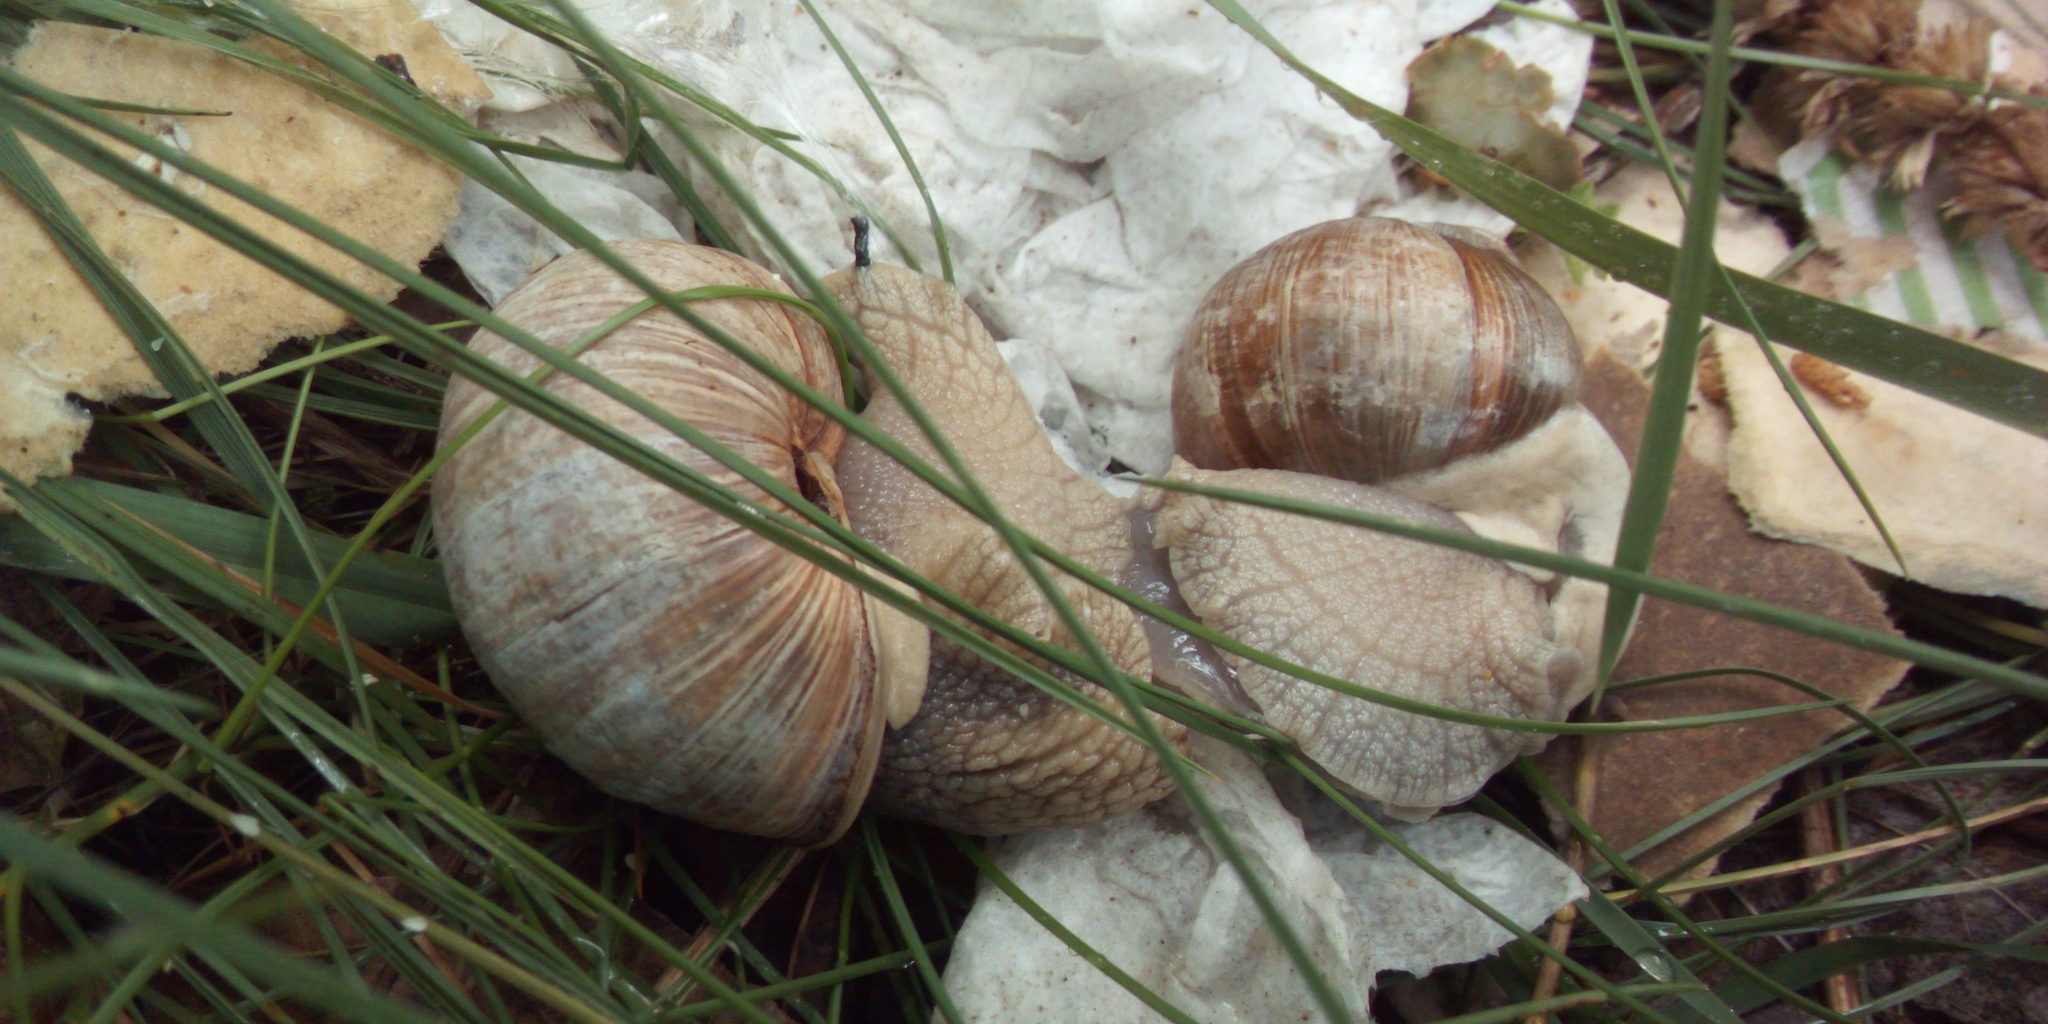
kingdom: Animalia
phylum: Mollusca
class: Gastropoda
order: Stylommatophora
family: Helicidae
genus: Helix
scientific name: Helix pomatia
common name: Roman snail
